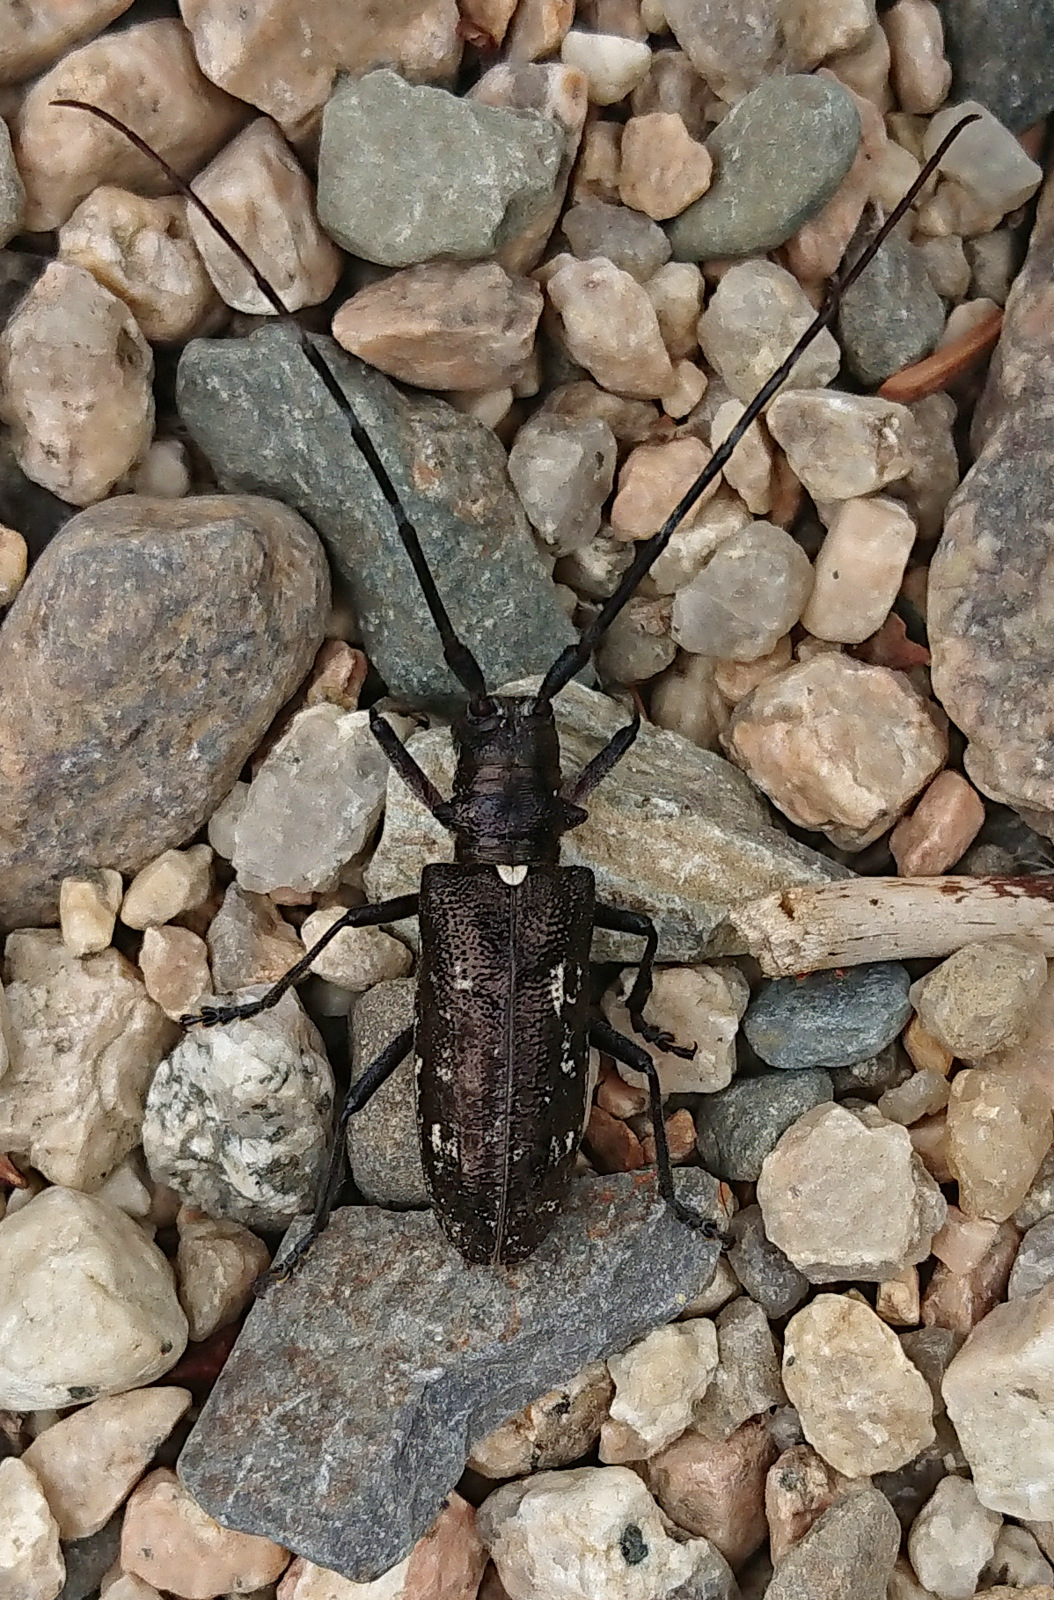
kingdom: Animalia
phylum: Arthropoda
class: Insecta
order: Coleoptera
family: Cerambycidae
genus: Monochamus
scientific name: Monochamus scutellatus
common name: White-spotted sawyer beetle
